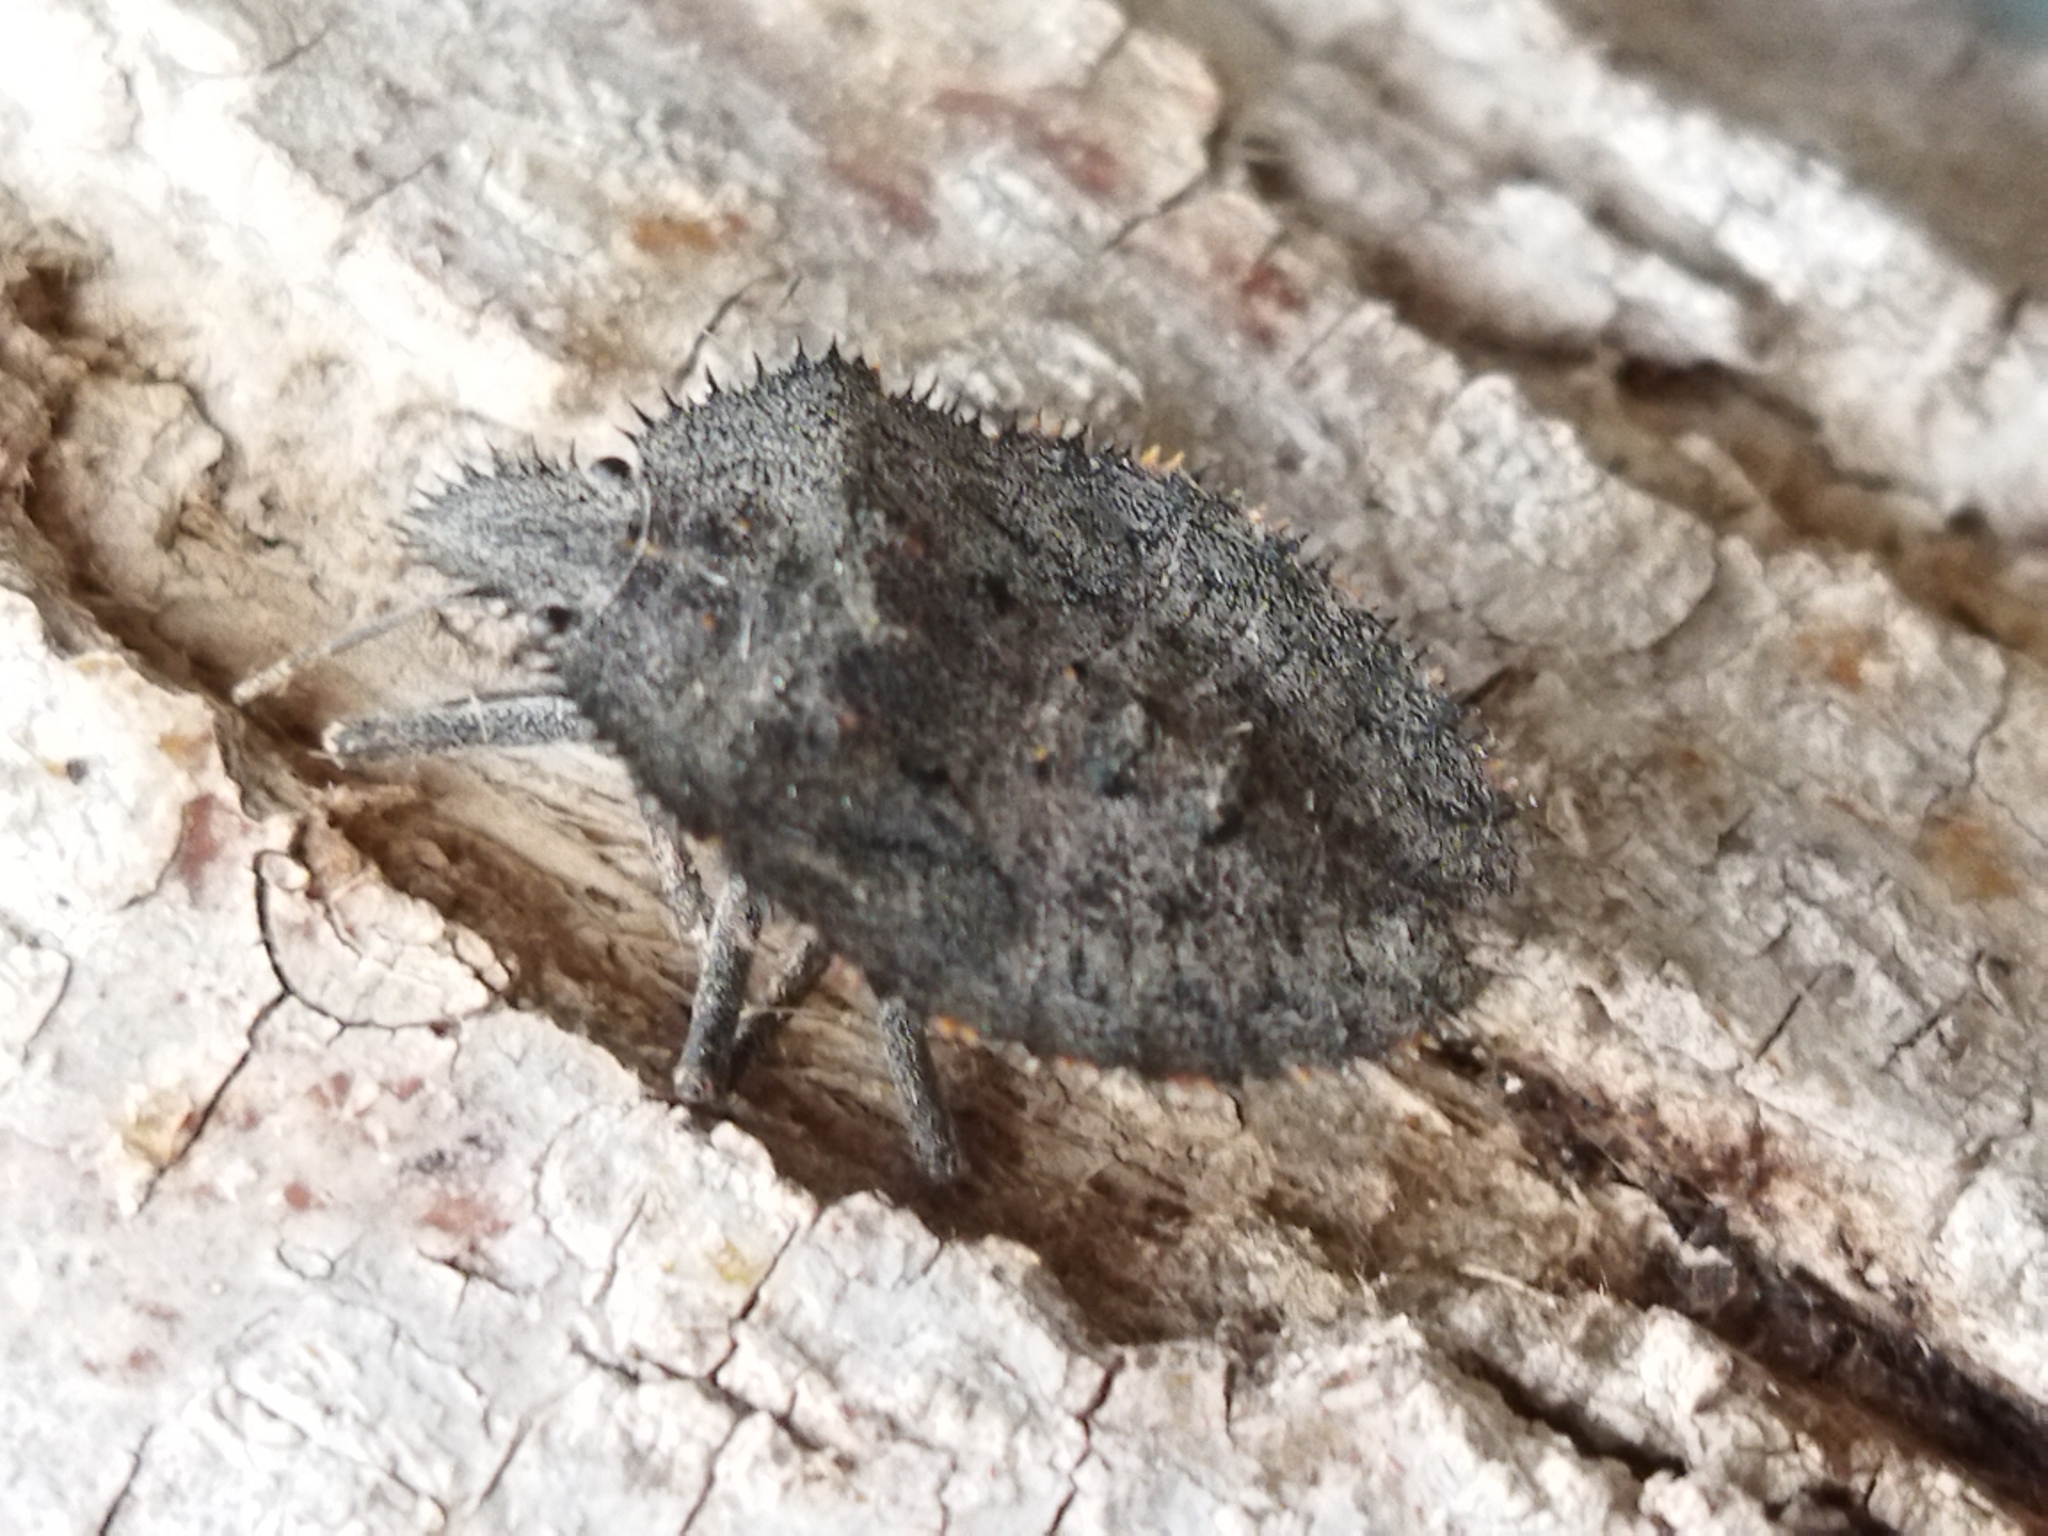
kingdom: Animalia
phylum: Arthropoda
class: Insecta
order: Hemiptera
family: Pentatomidae
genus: Mustha
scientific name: Mustha spinosula
